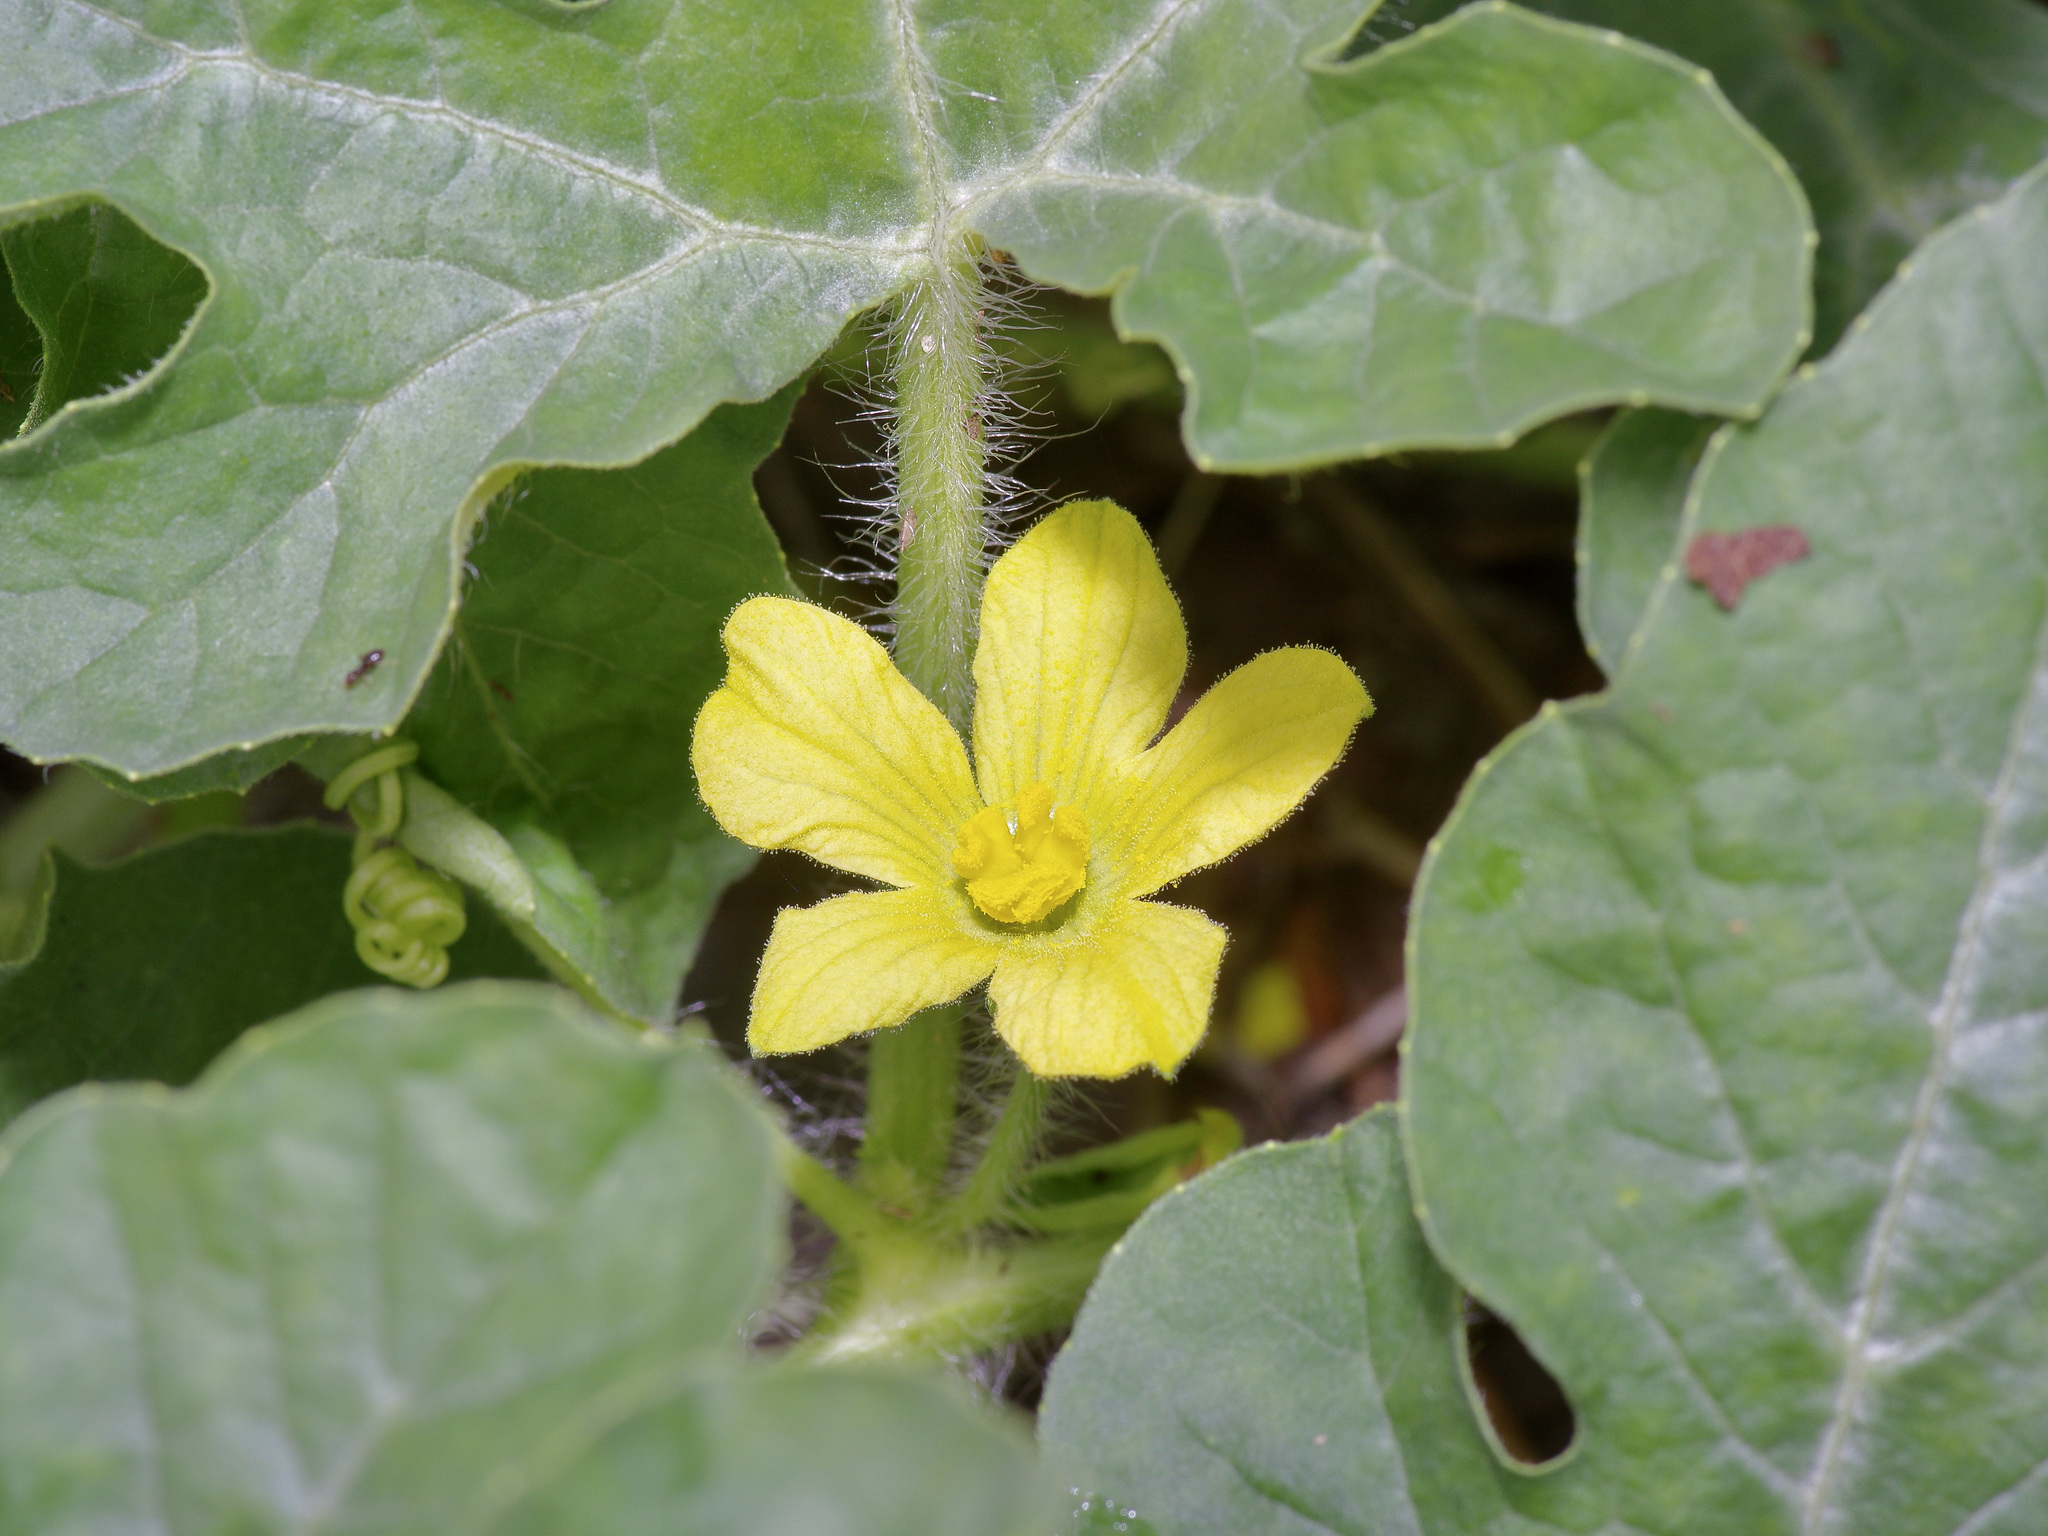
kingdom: Plantae
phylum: Tracheophyta
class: Magnoliopsida
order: Cucurbitales
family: Cucurbitaceae
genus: Citrullus
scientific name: Citrullus lanatus
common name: Watermelon
